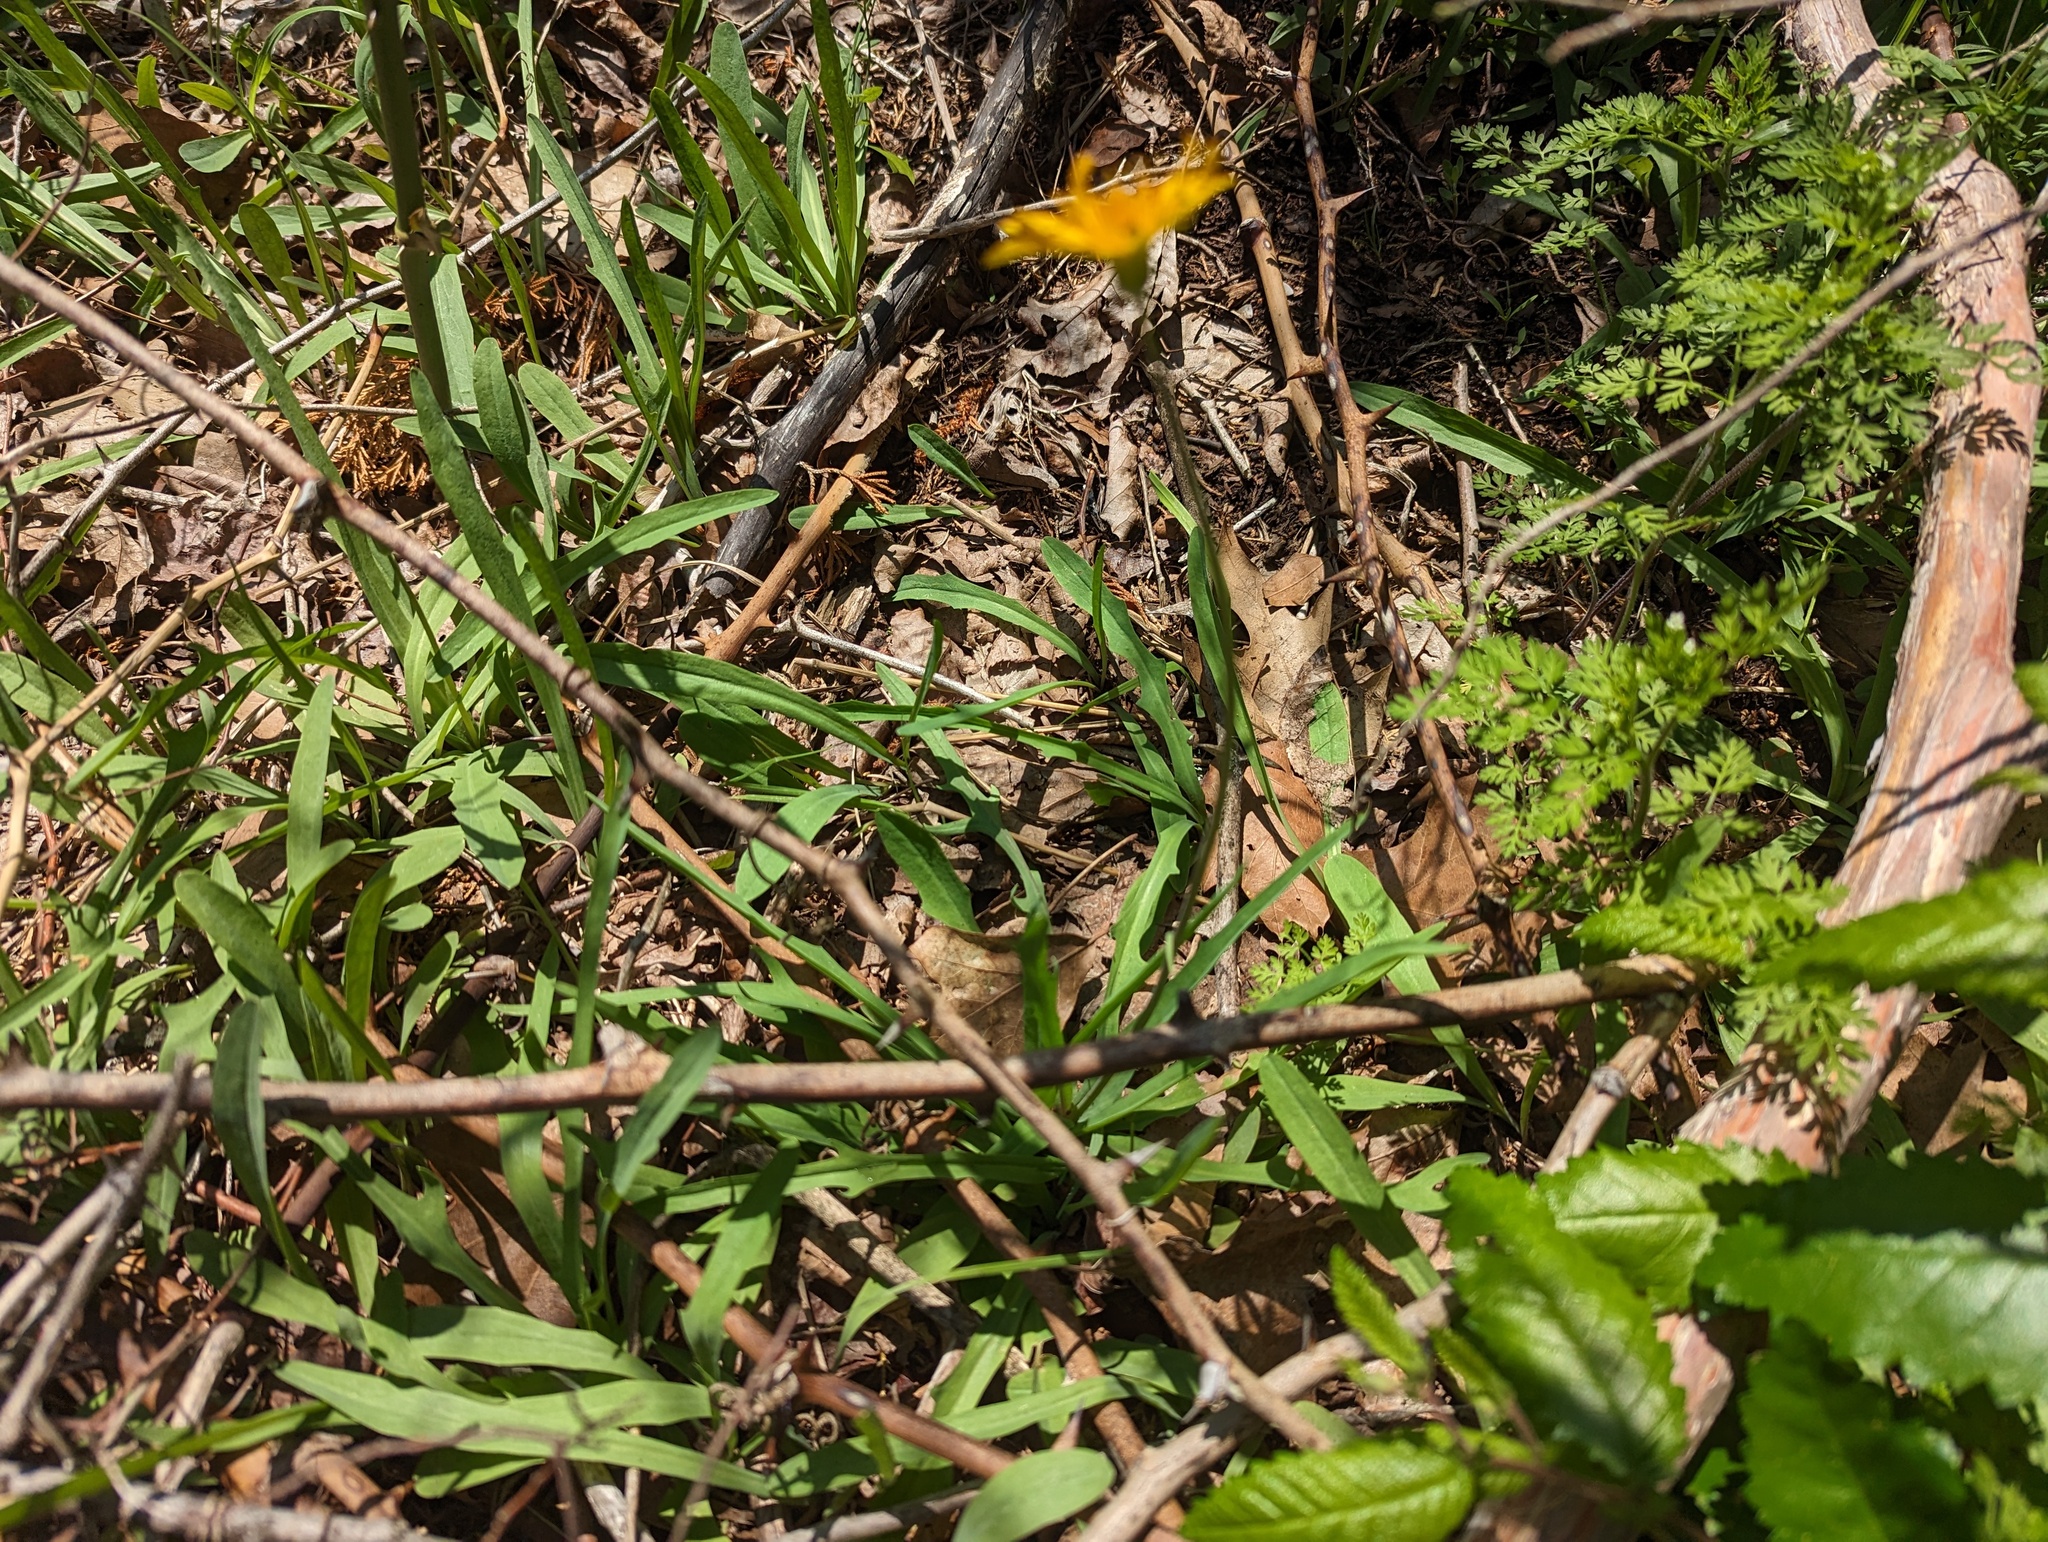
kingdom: Plantae
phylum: Tracheophyta
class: Magnoliopsida
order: Asterales
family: Asteraceae
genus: Krigia
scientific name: Krigia dandelion
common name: Colonial dwarf-dandelion
